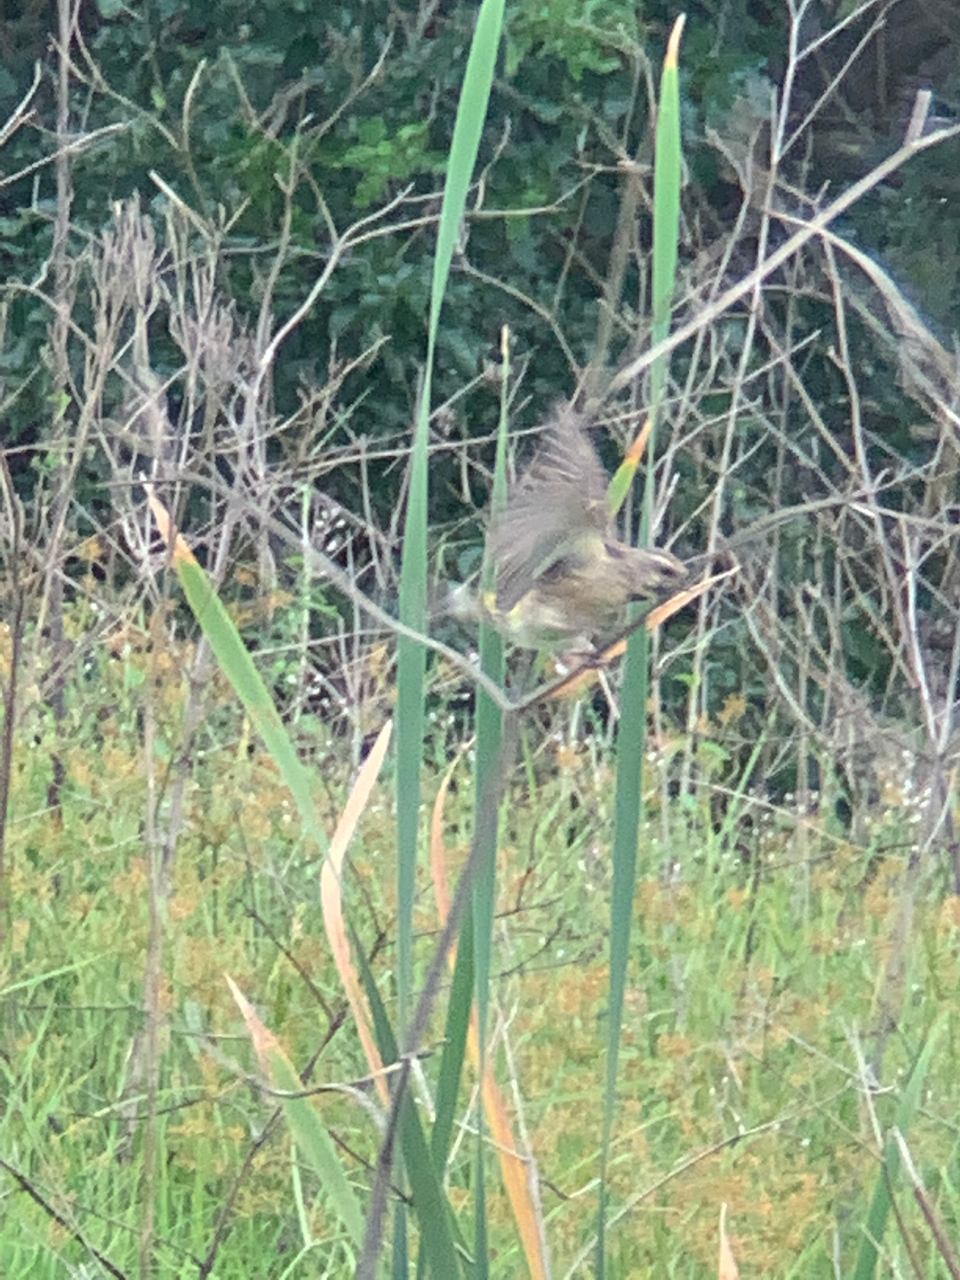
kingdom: Animalia
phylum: Chordata
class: Aves
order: Passeriformes
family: Fringillidae
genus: Crithagra
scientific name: Crithagra atrogularis
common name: Black-throated canary
